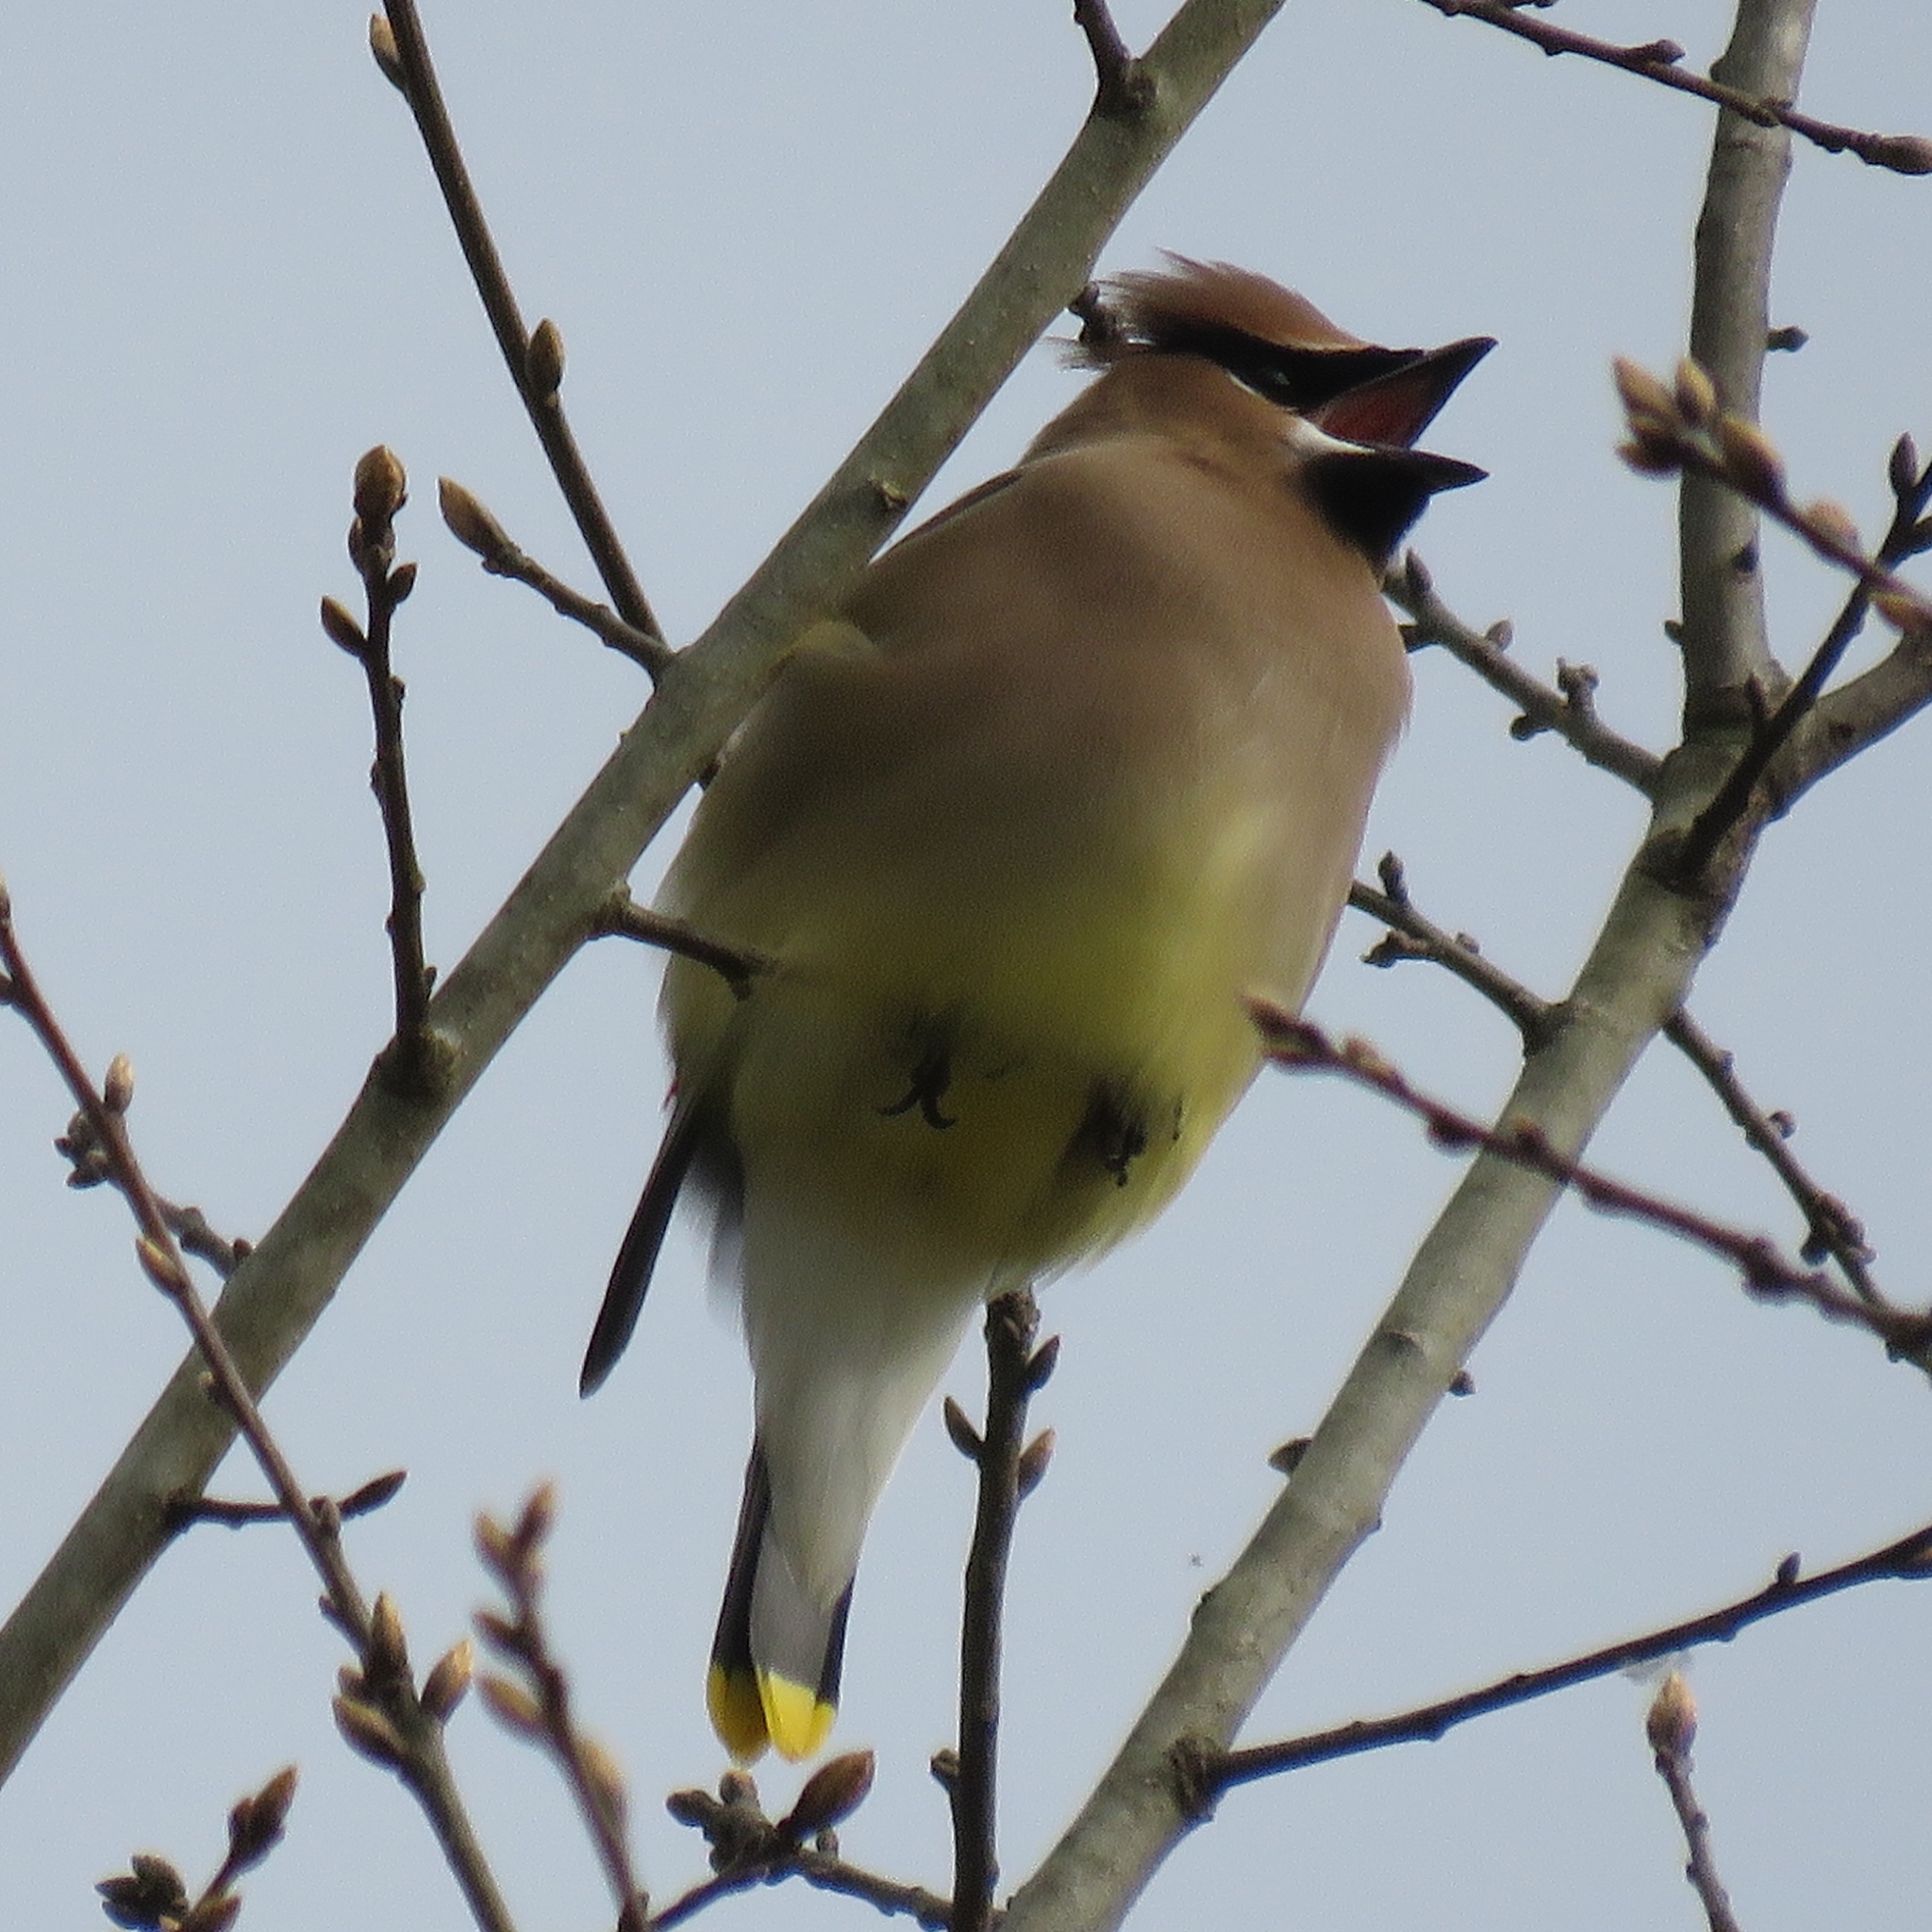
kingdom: Animalia
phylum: Chordata
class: Aves
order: Passeriformes
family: Bombycillidae
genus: Bombycilla
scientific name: Bombycilla cedrorum
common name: Cedar waxwing
